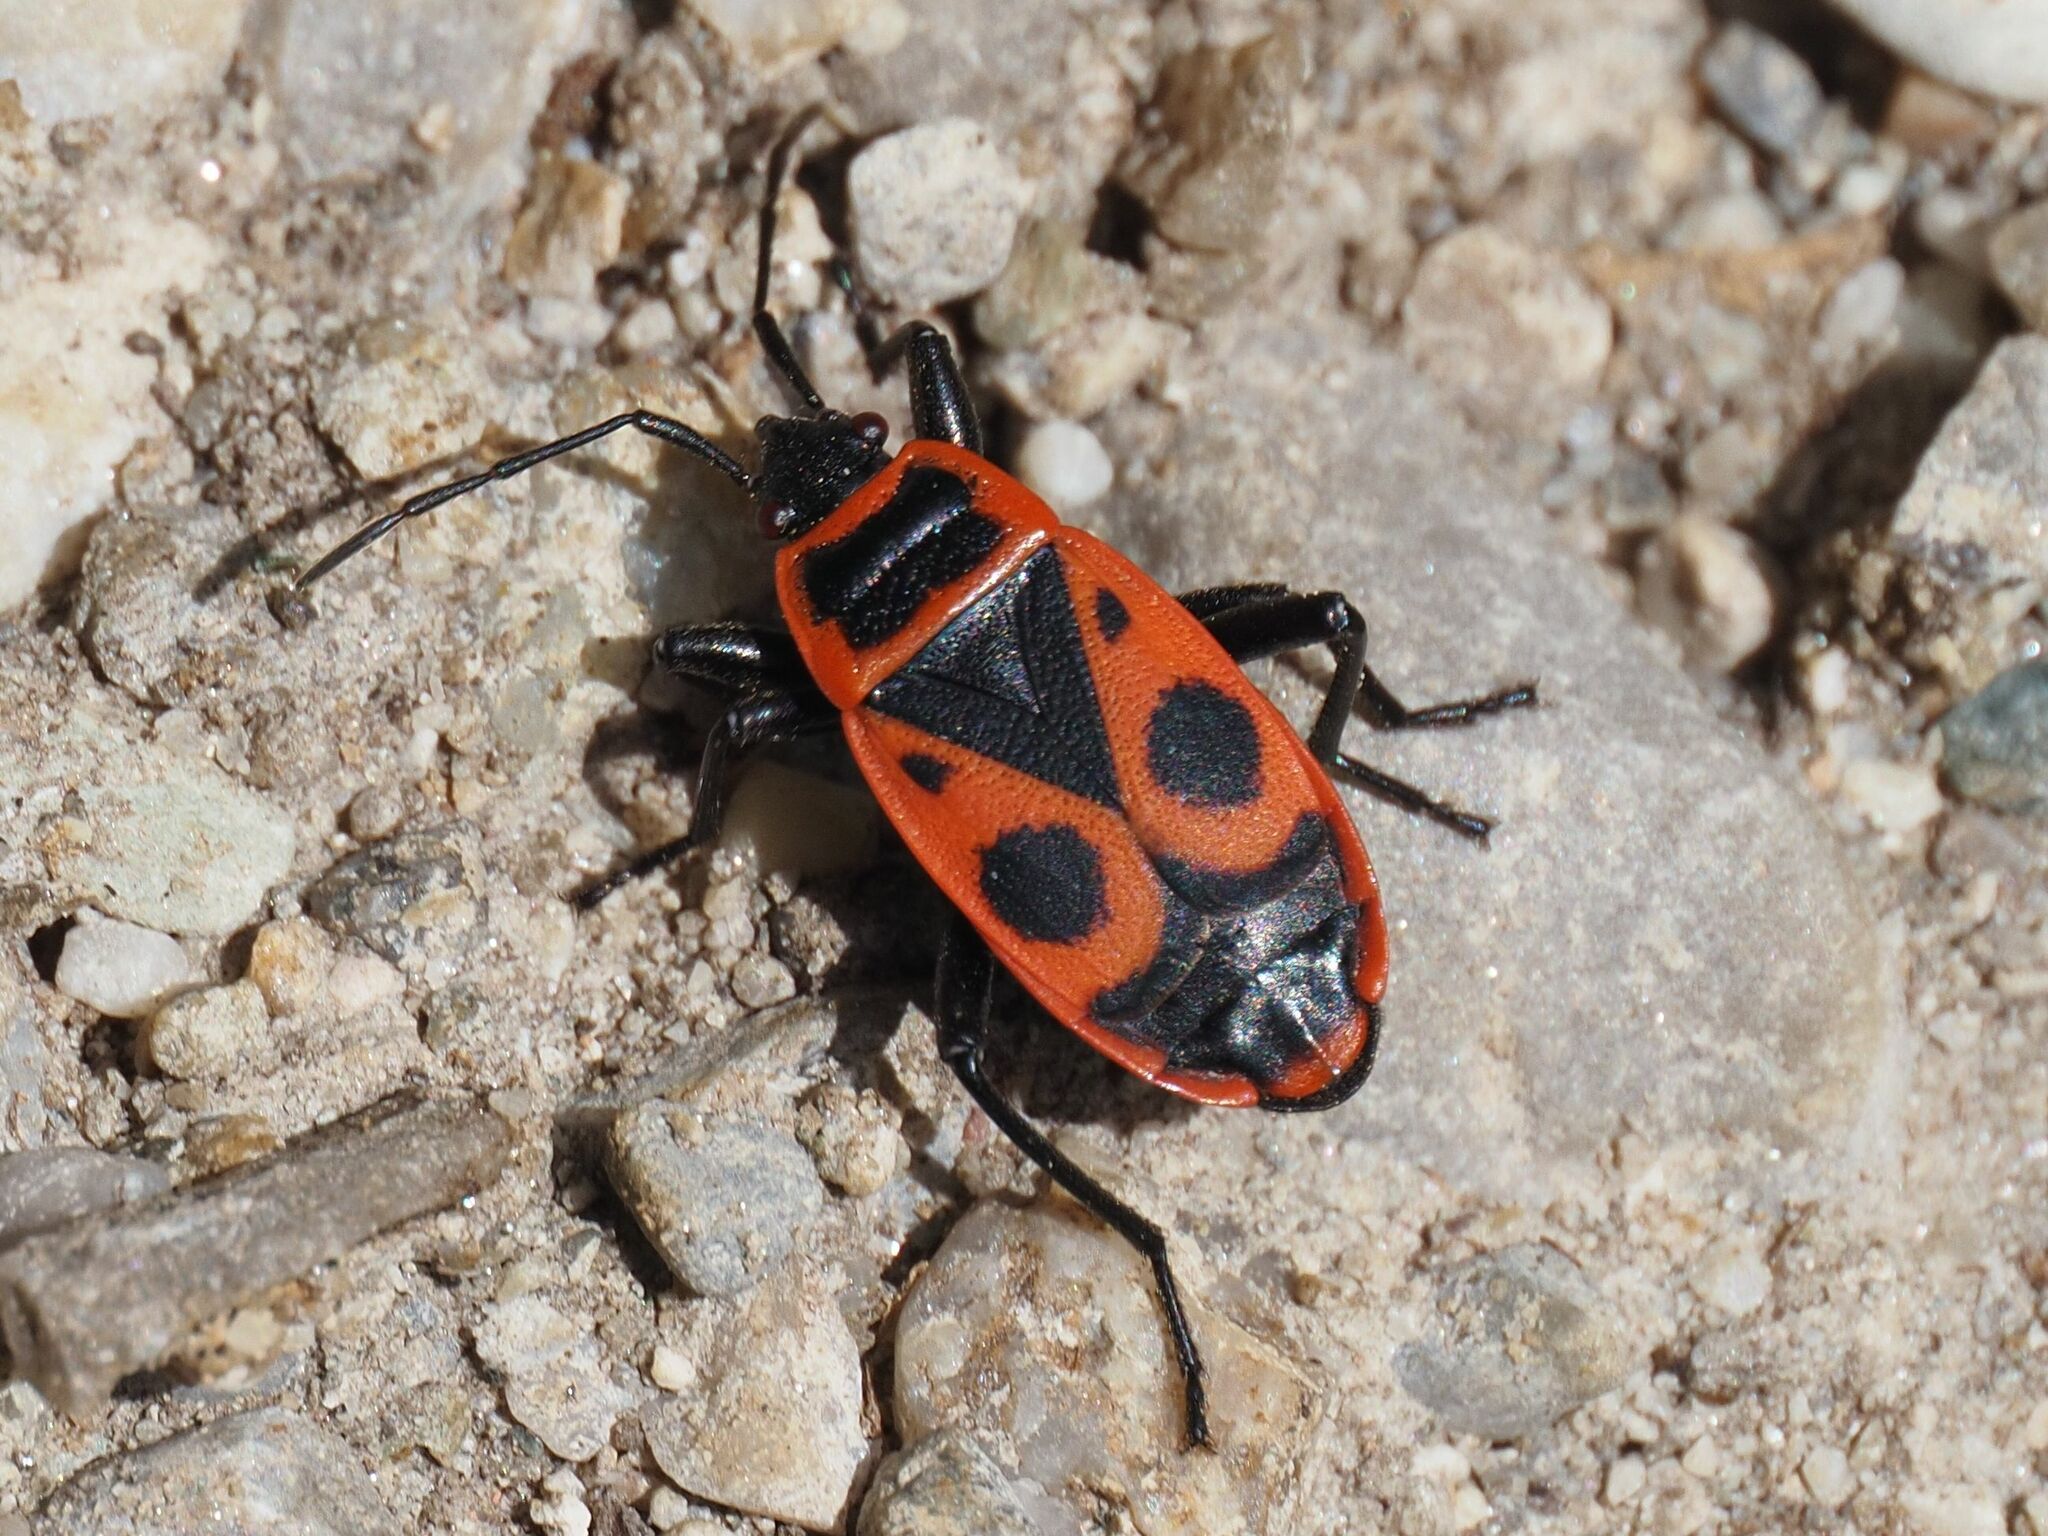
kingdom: Animalia
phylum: Arthropoda
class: Insecta
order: Hemiptera
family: Pyrrhocoridae
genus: Pyrrhocoris
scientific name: Pyrrhocoris apterus
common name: Firebug
